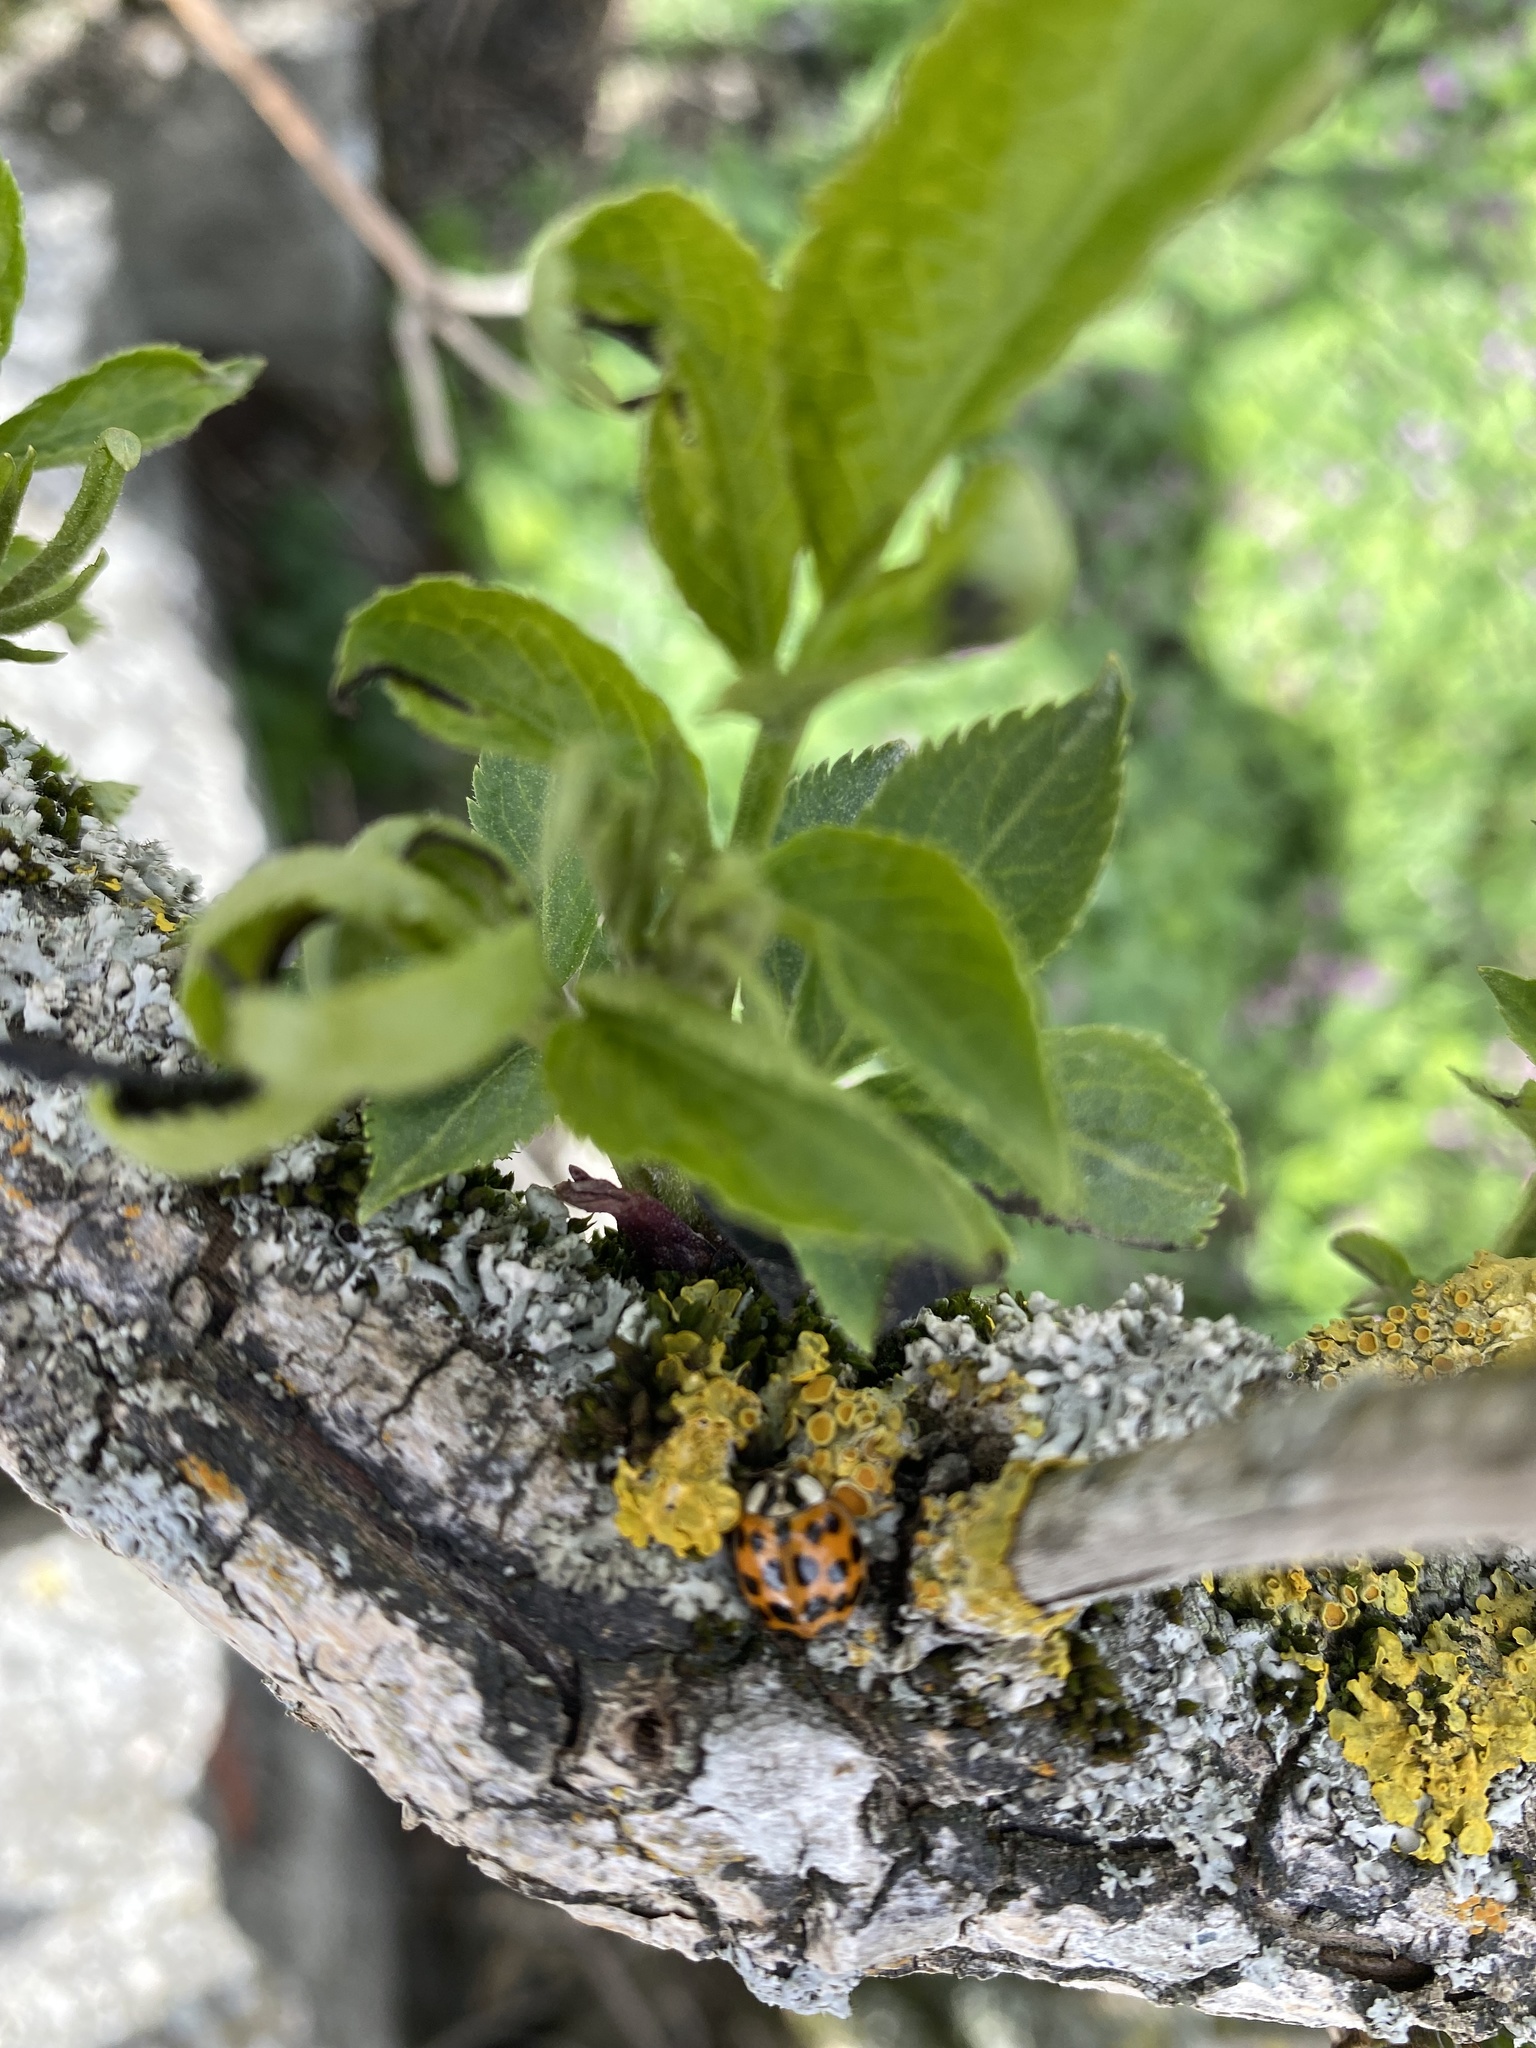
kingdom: Animalia
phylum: Arthropoda
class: Insecta
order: Coleoptera
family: Coccinellidae
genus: Harmonia
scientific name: Harmonia axyridis
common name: Harlequin ladybird
